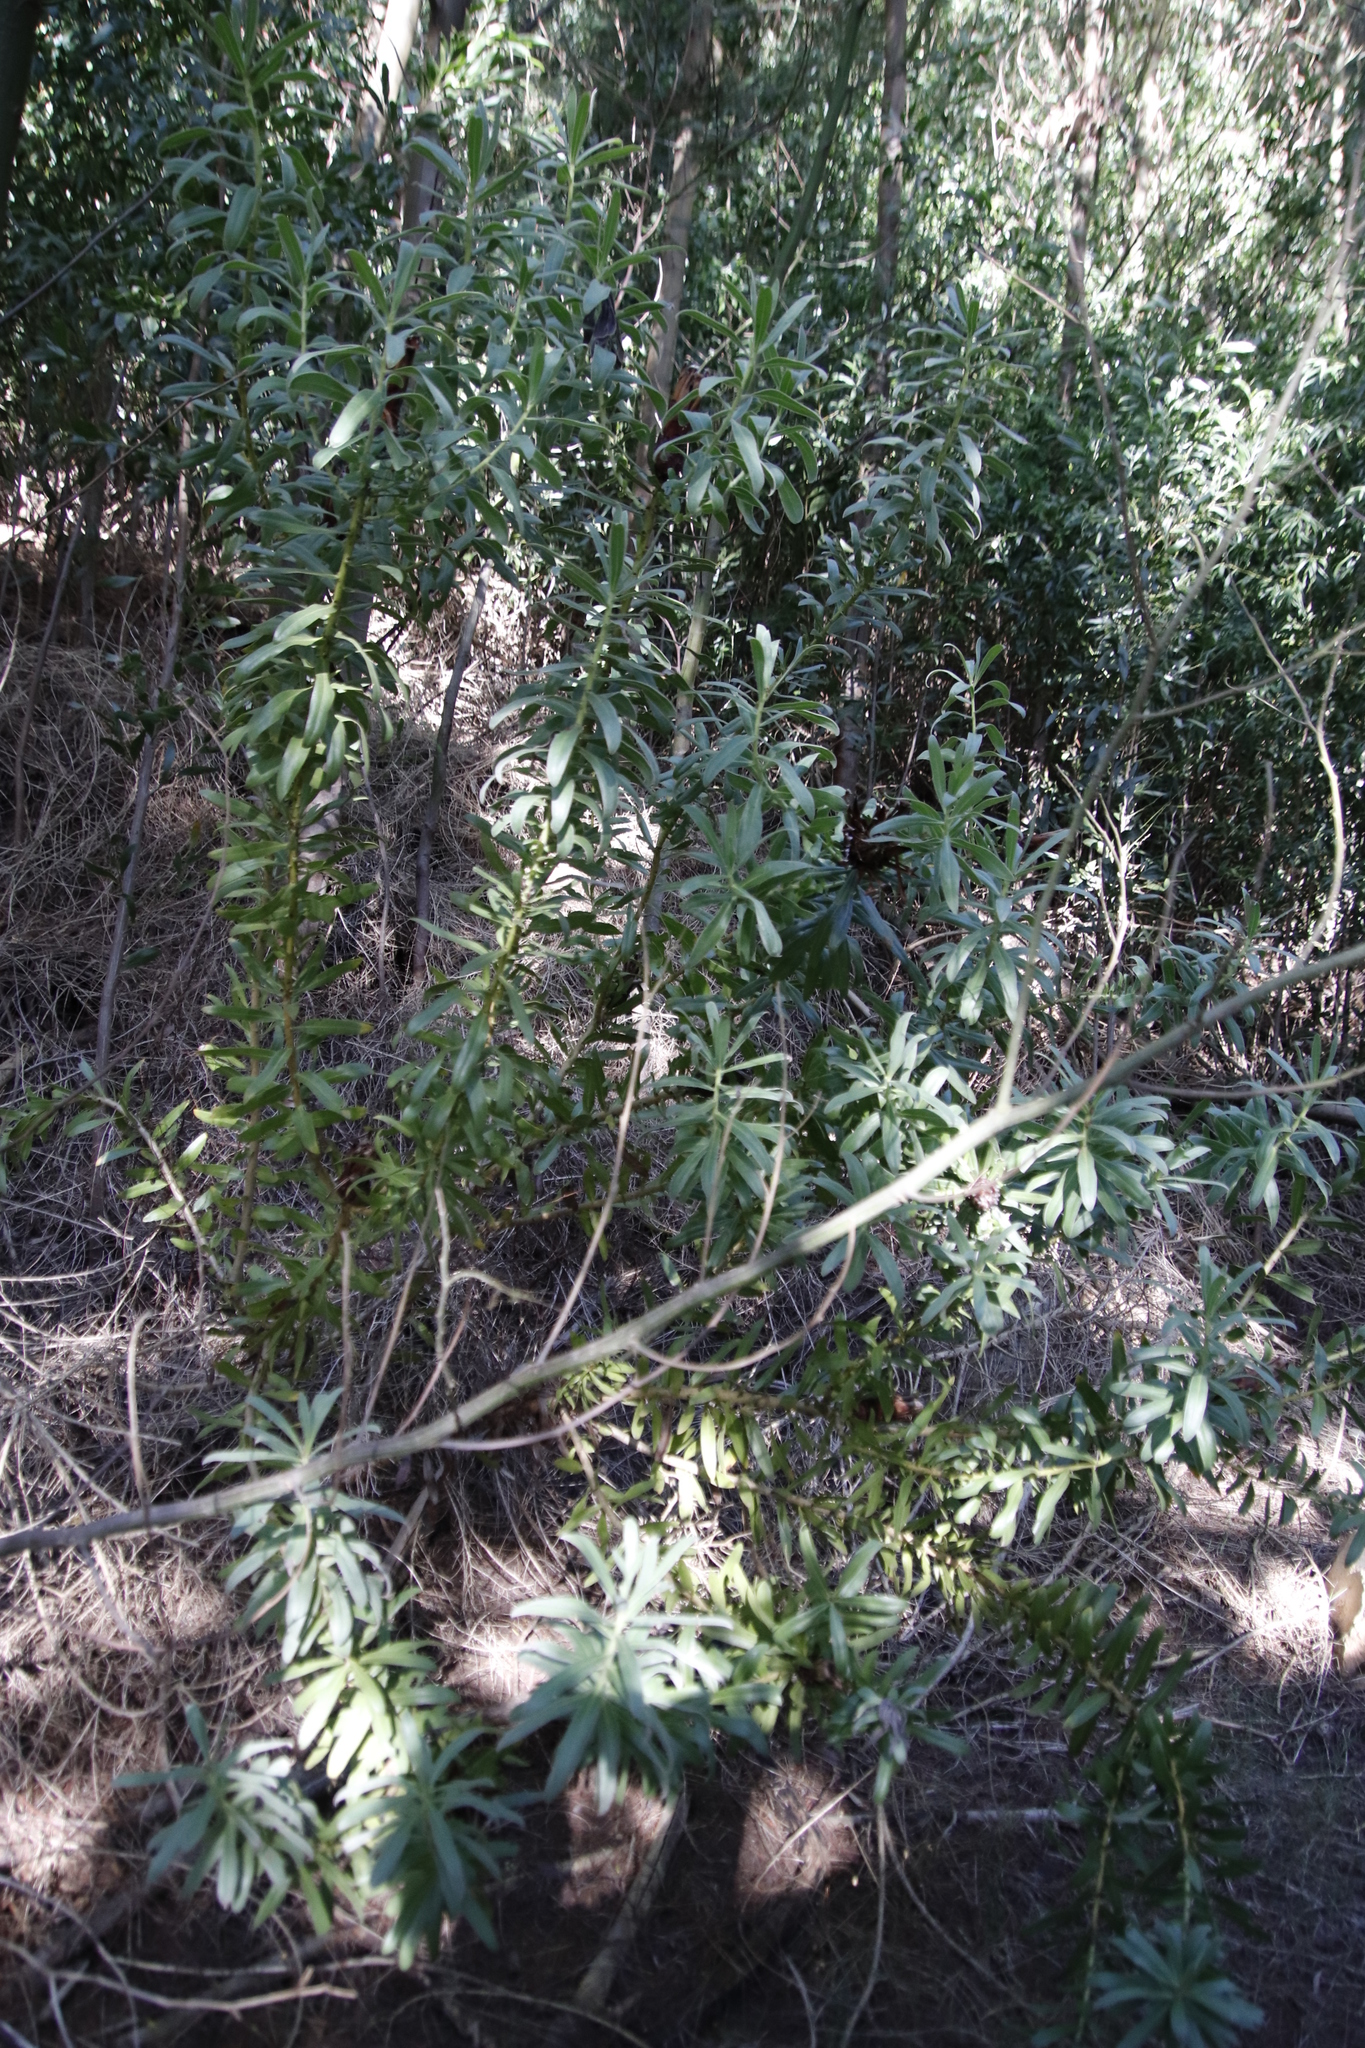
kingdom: Plantae
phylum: Tracheophyta
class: Magnoliopsida
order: Proteales
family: Proteaceae
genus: Protea
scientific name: Protea lepidocarpodendron
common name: Black-bearded protea
